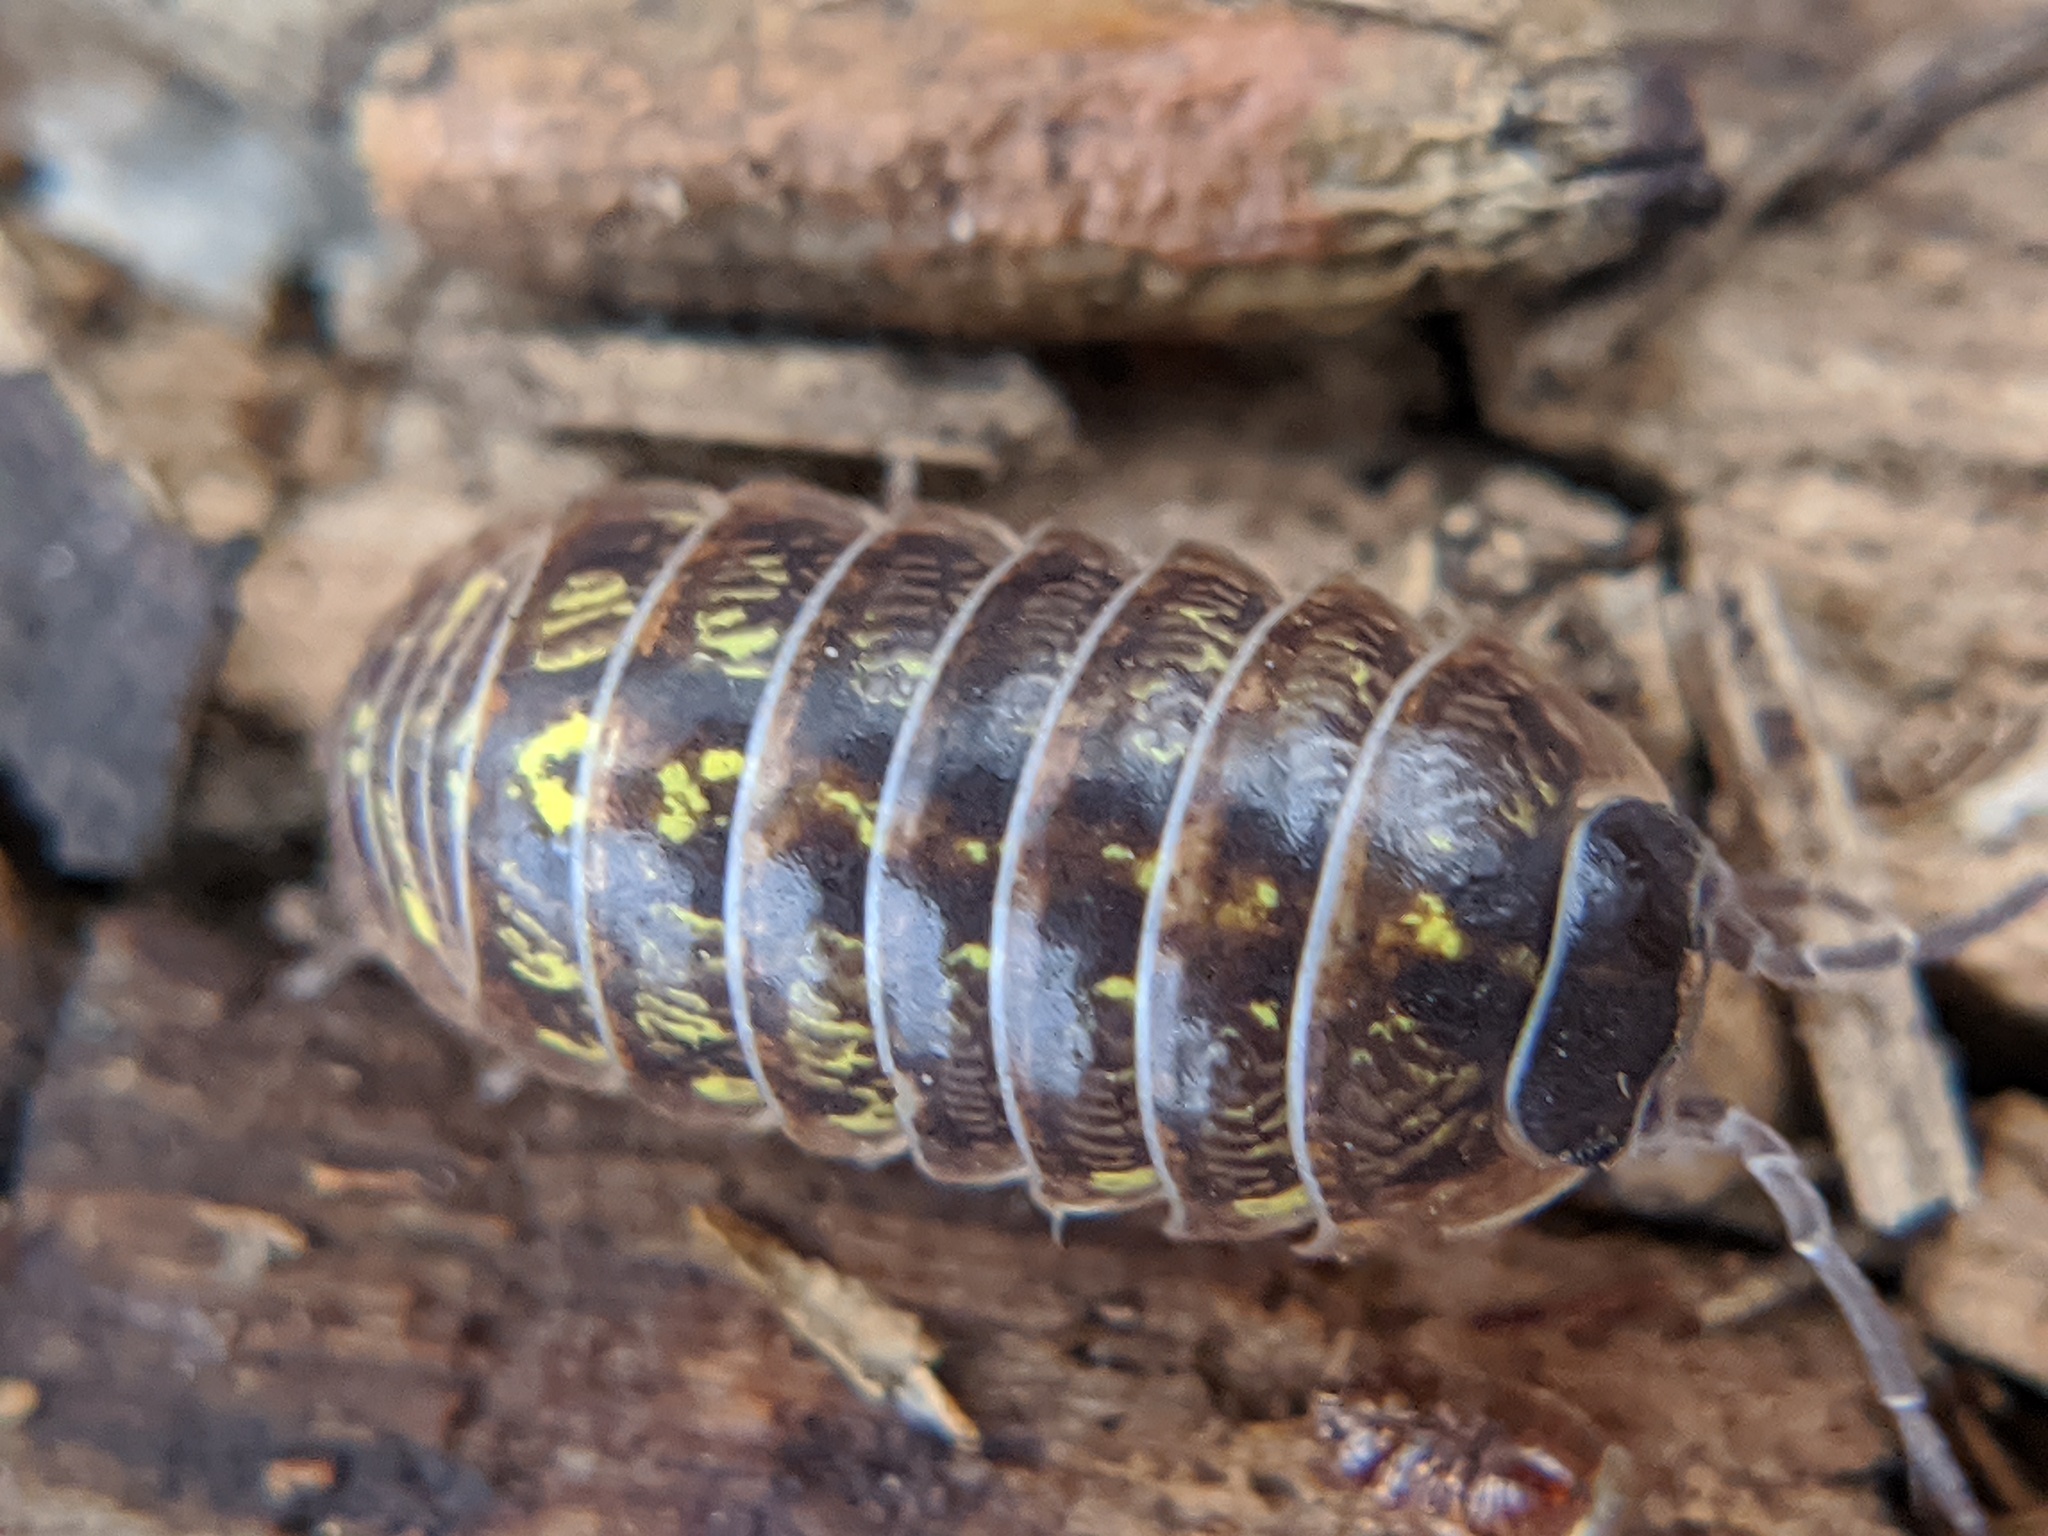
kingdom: Animalia
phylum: Arthropoda
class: Malacostraca
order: Isopoda
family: Armadillidiidae
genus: Armadillidium
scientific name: Armadillidium vulgare
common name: Common pill woodlouse
